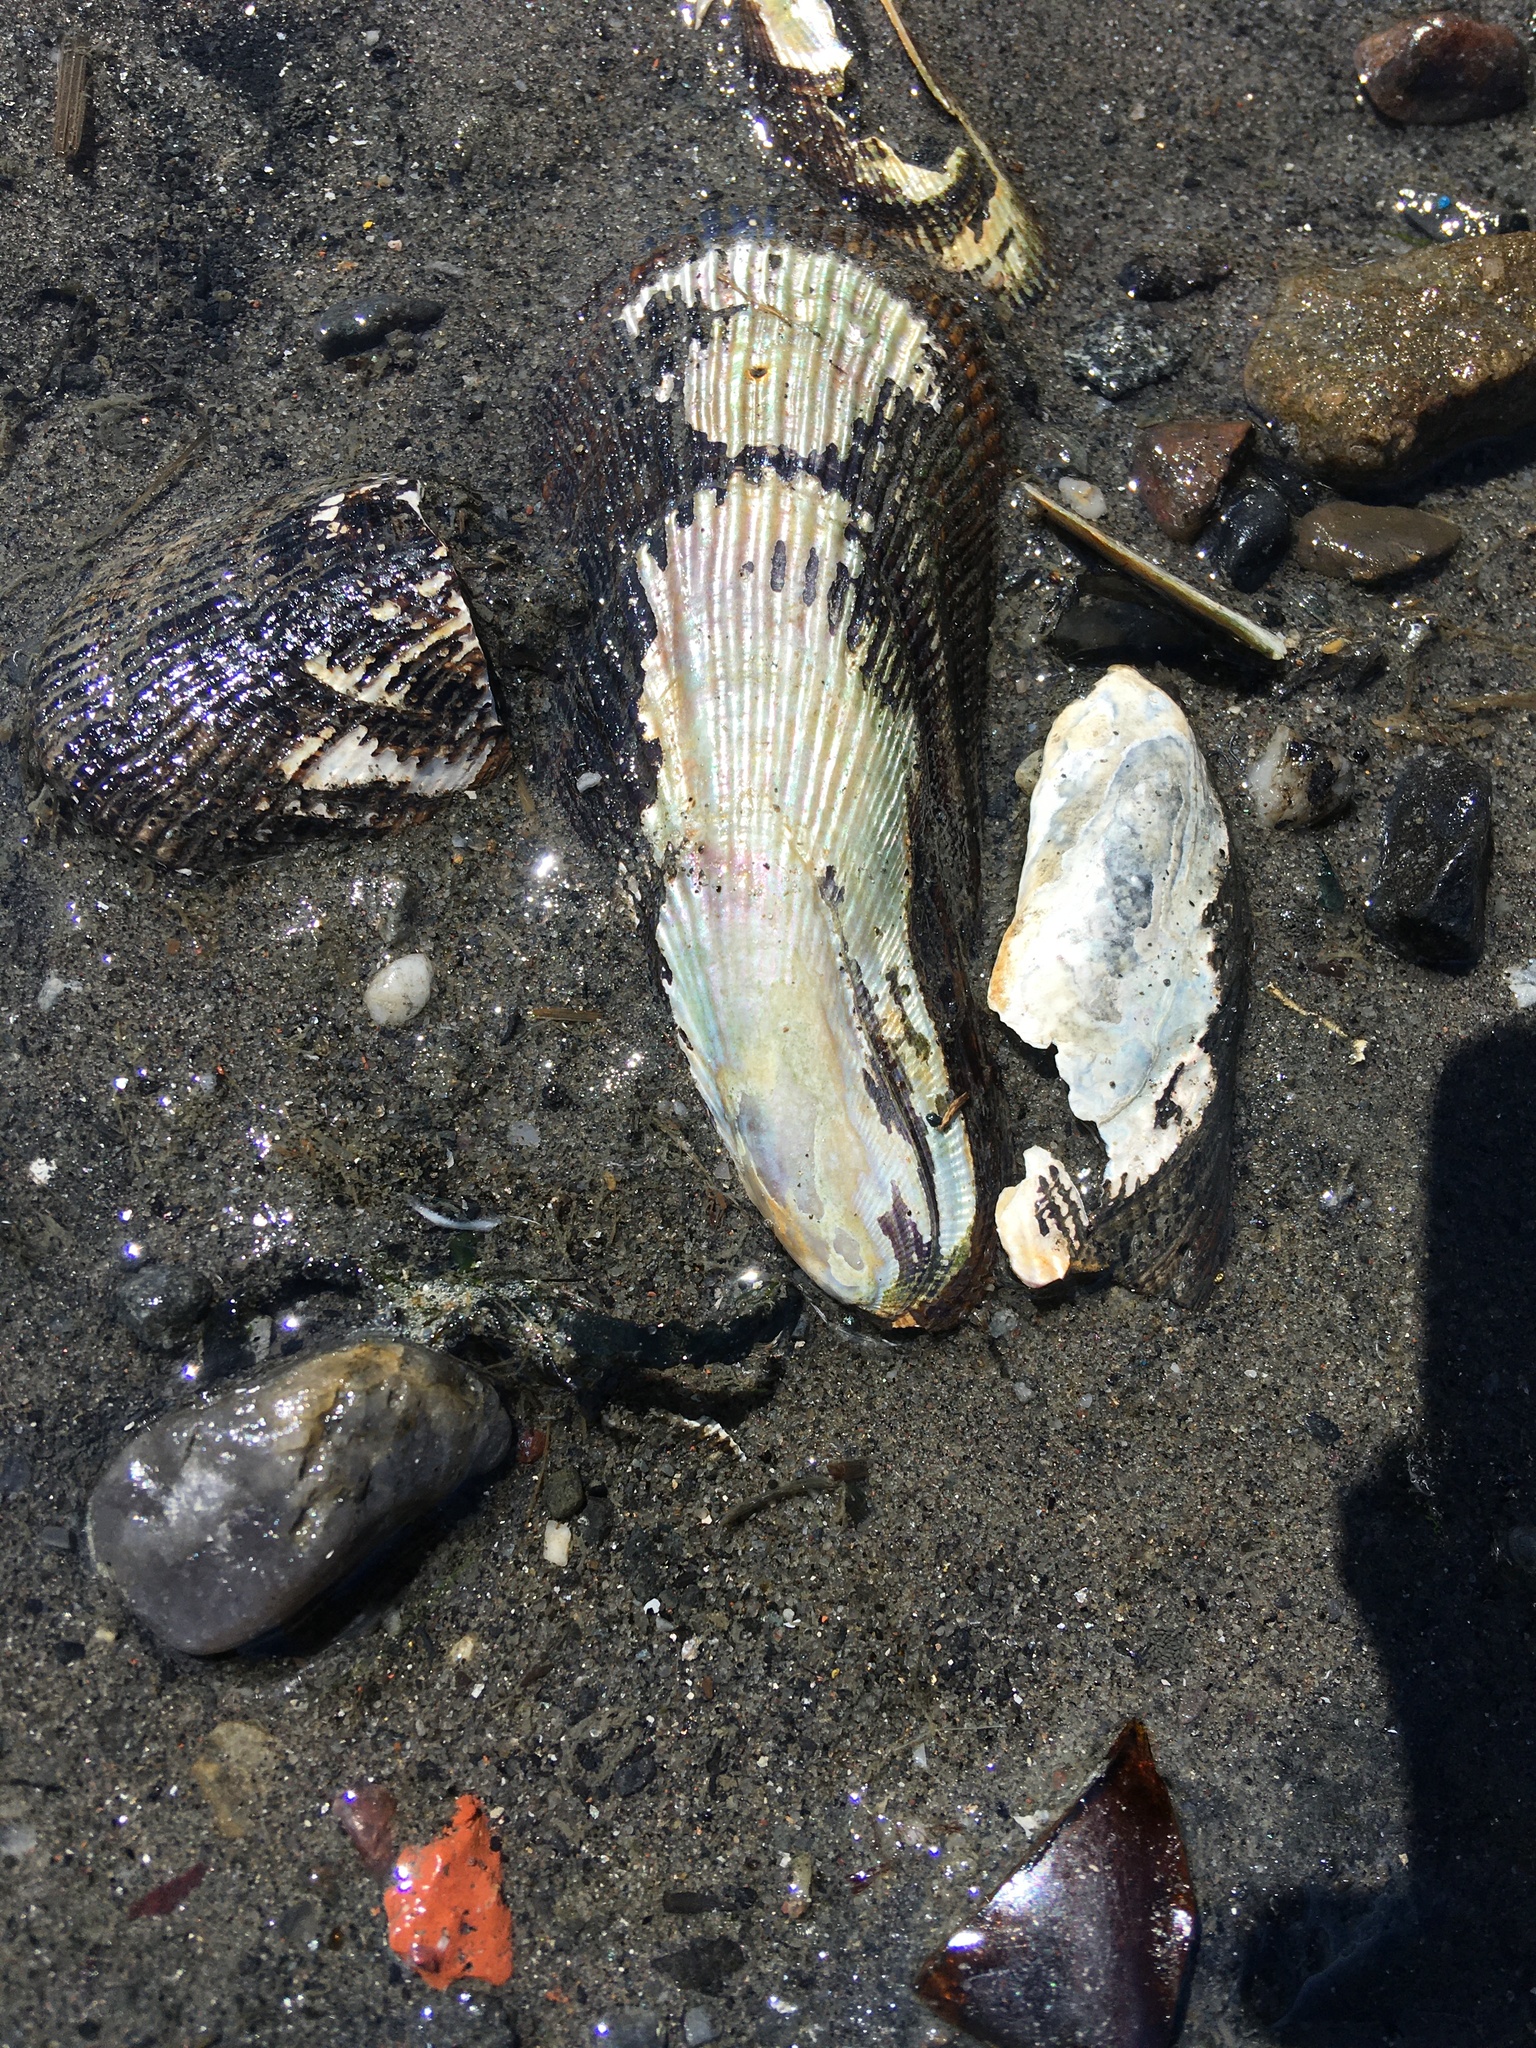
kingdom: Animalia
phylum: Mollusca
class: Bivalvia
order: Mytilida
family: Mytilidae
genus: Geukensia
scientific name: Geukensia demissa
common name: Ribbed mussel
